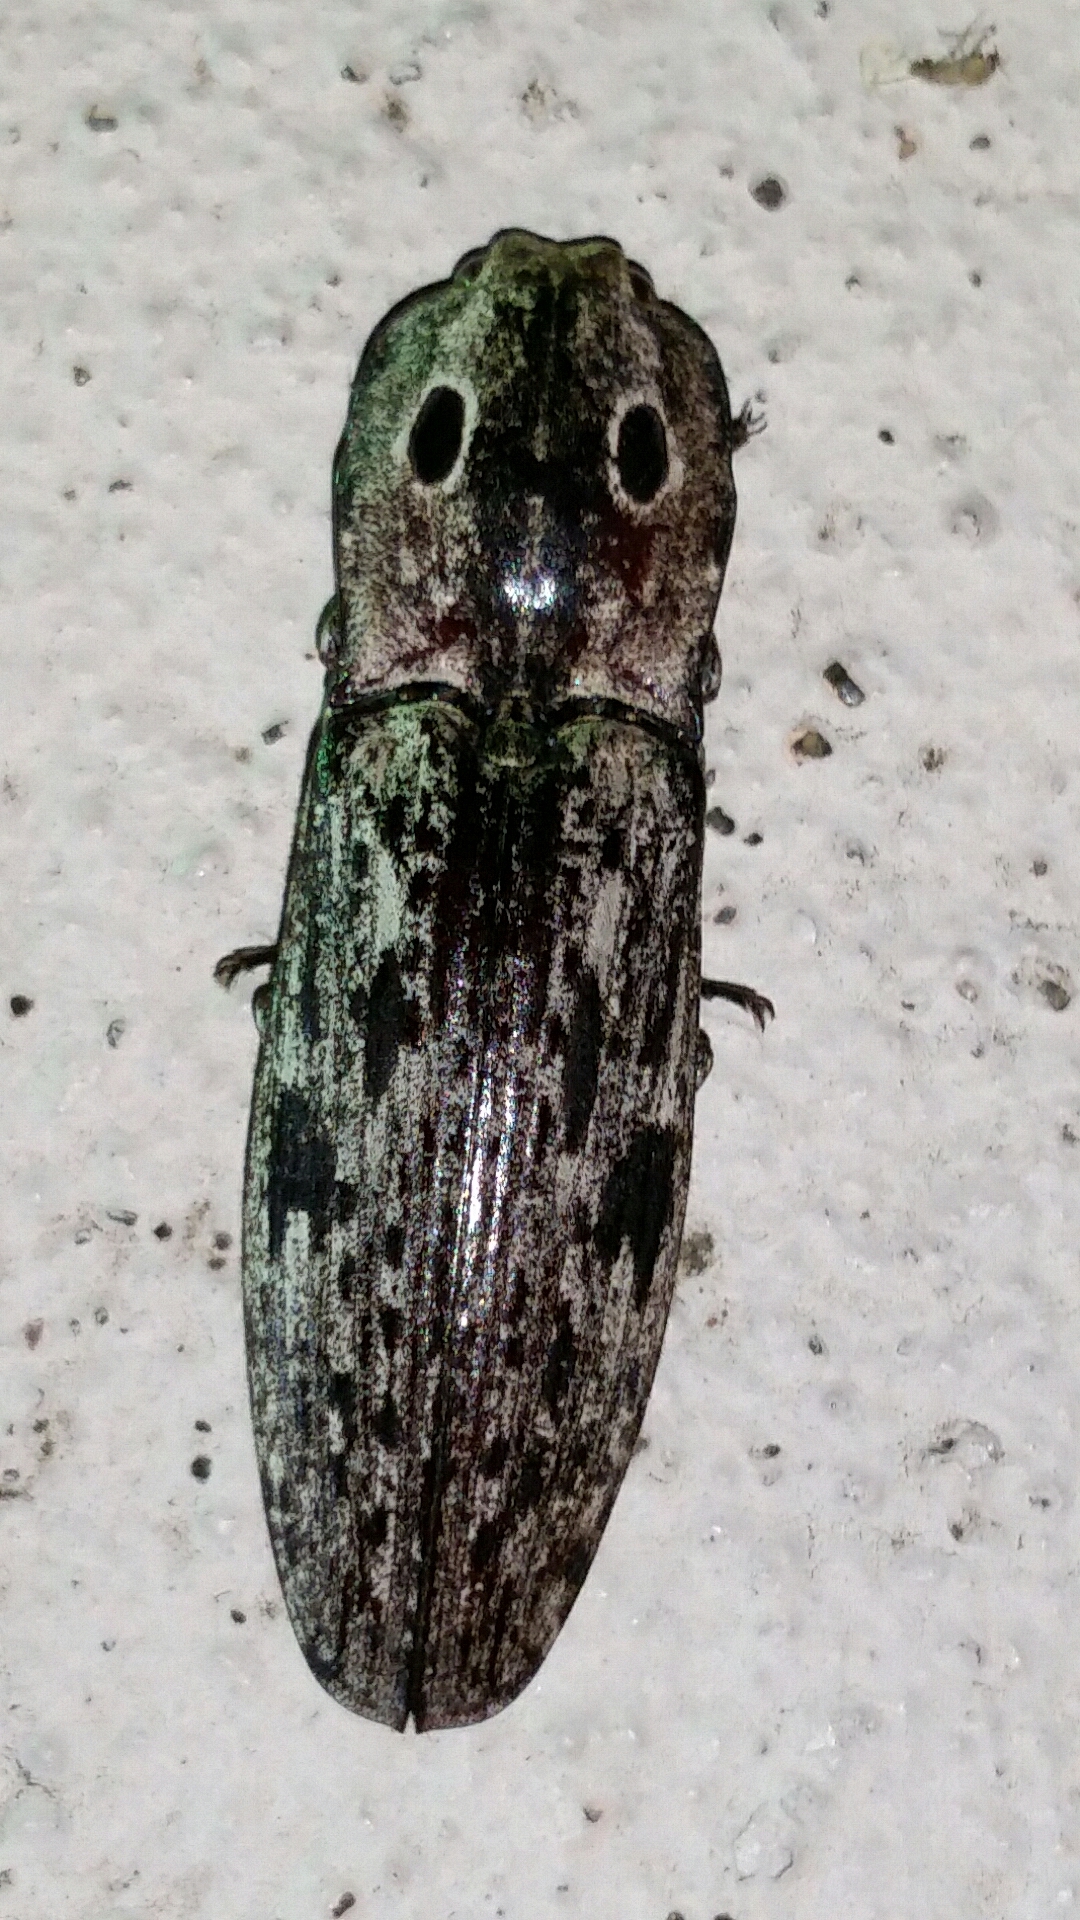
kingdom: Animalia
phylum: Arthropoda
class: Insecta
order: Coleoptera
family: Elateridae
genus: Alaus
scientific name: Alaus myops
